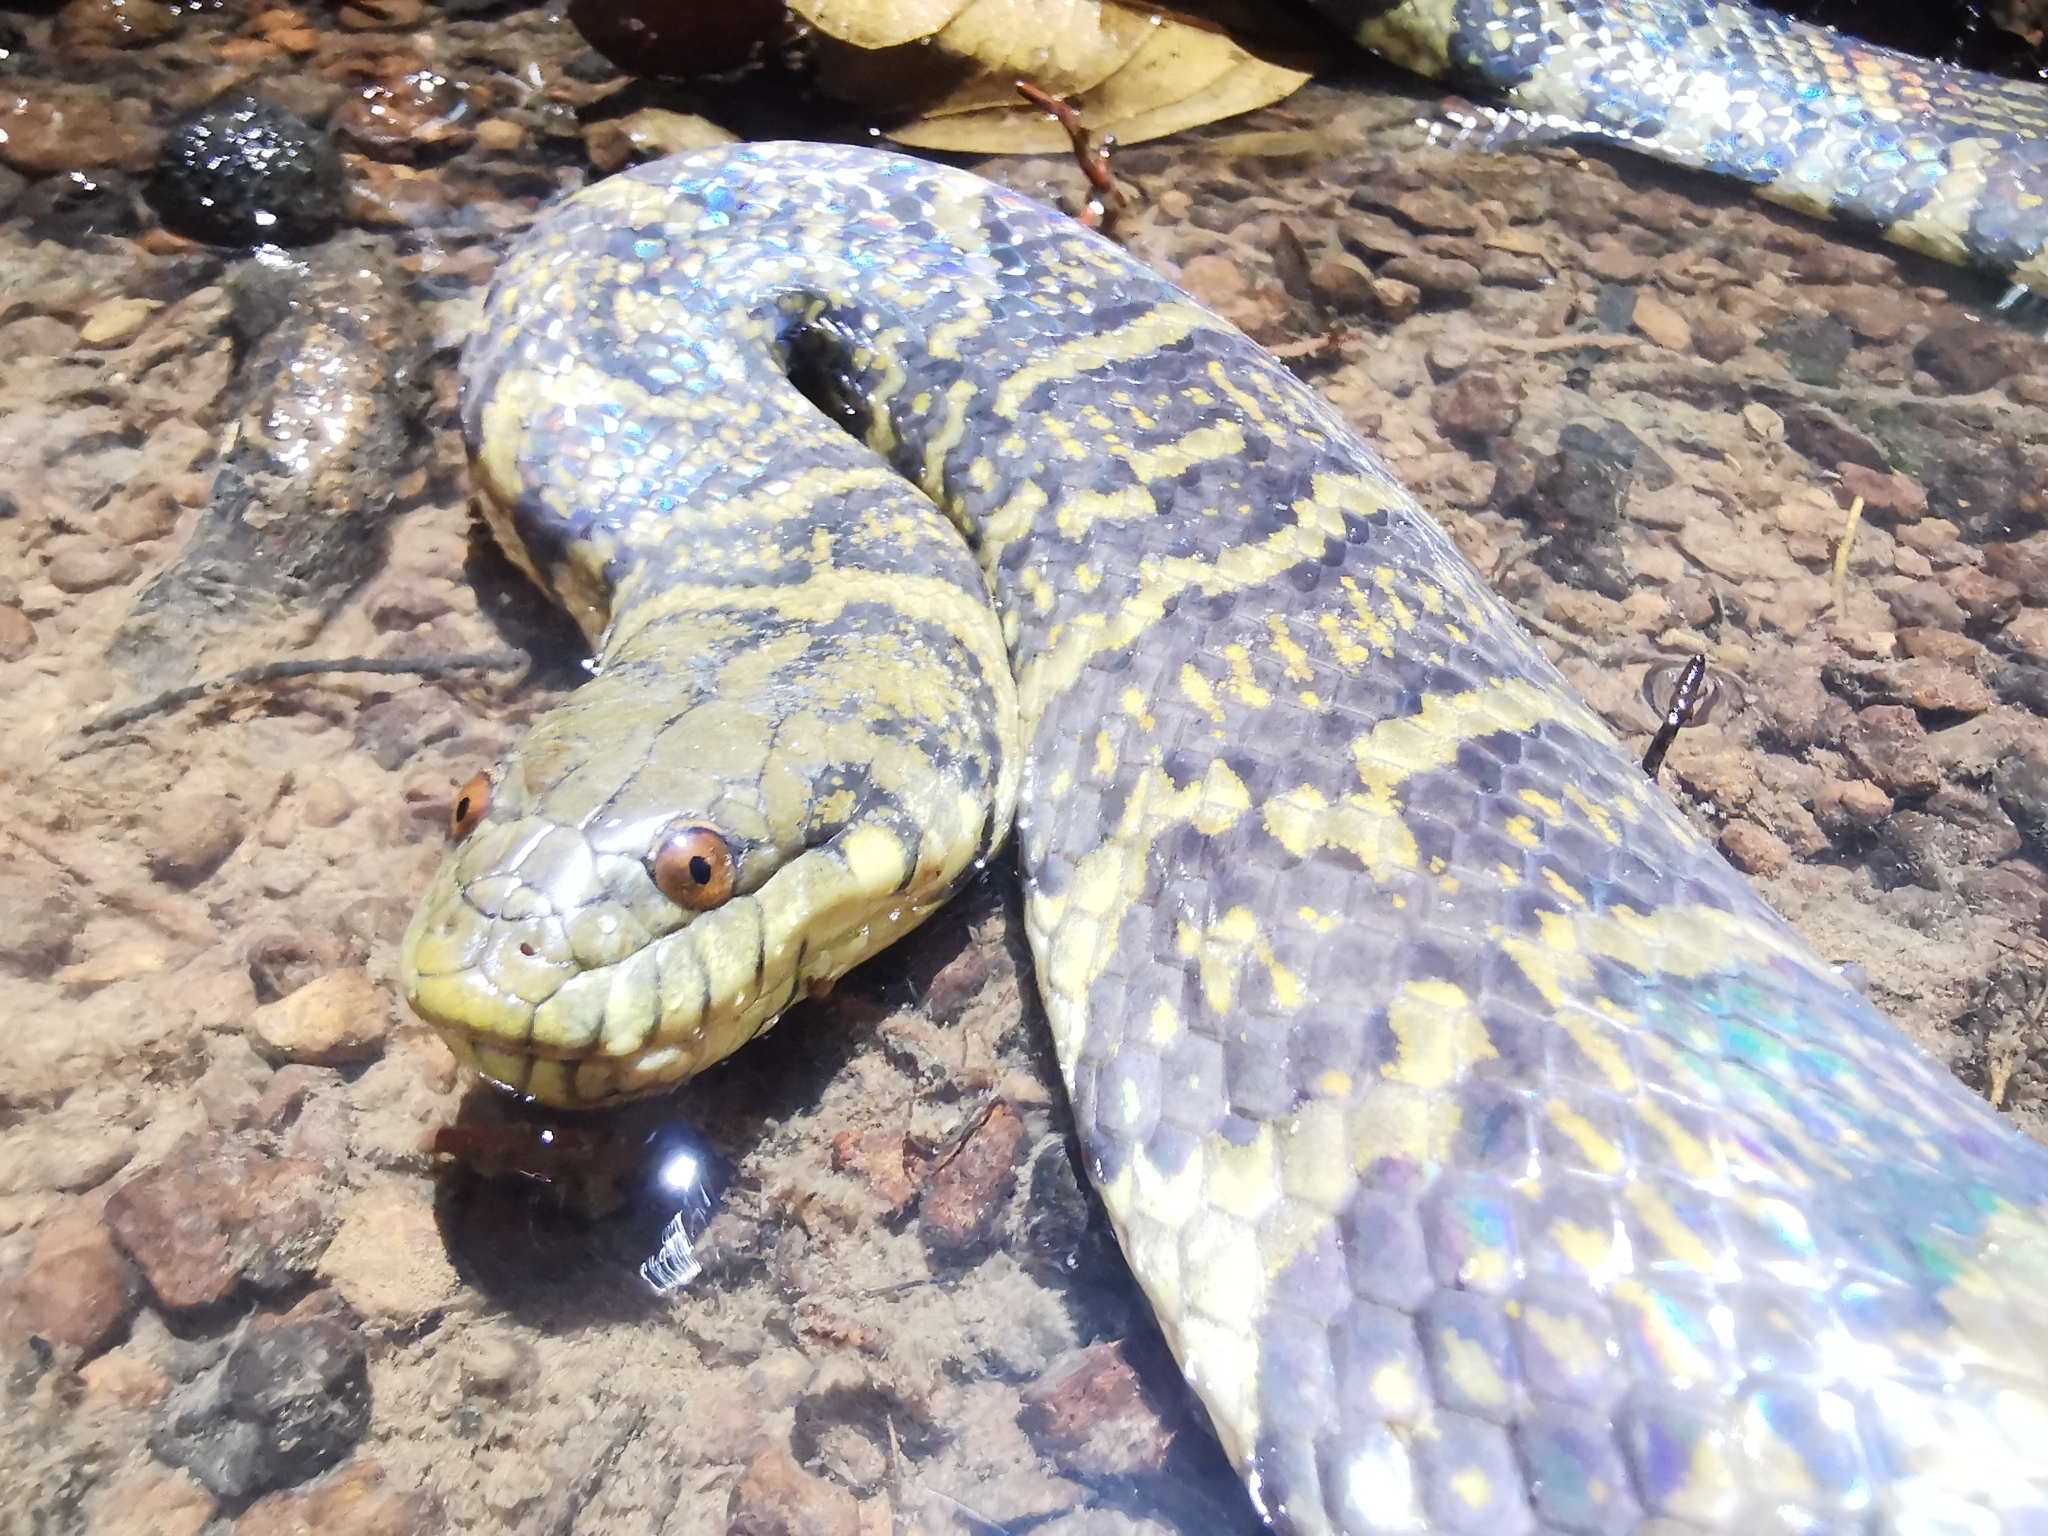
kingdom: Animalia
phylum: Chordata
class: Squamata
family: Homalopsidae
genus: Subsessor
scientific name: Subsessor bocourti
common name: Bocourt's water snake
